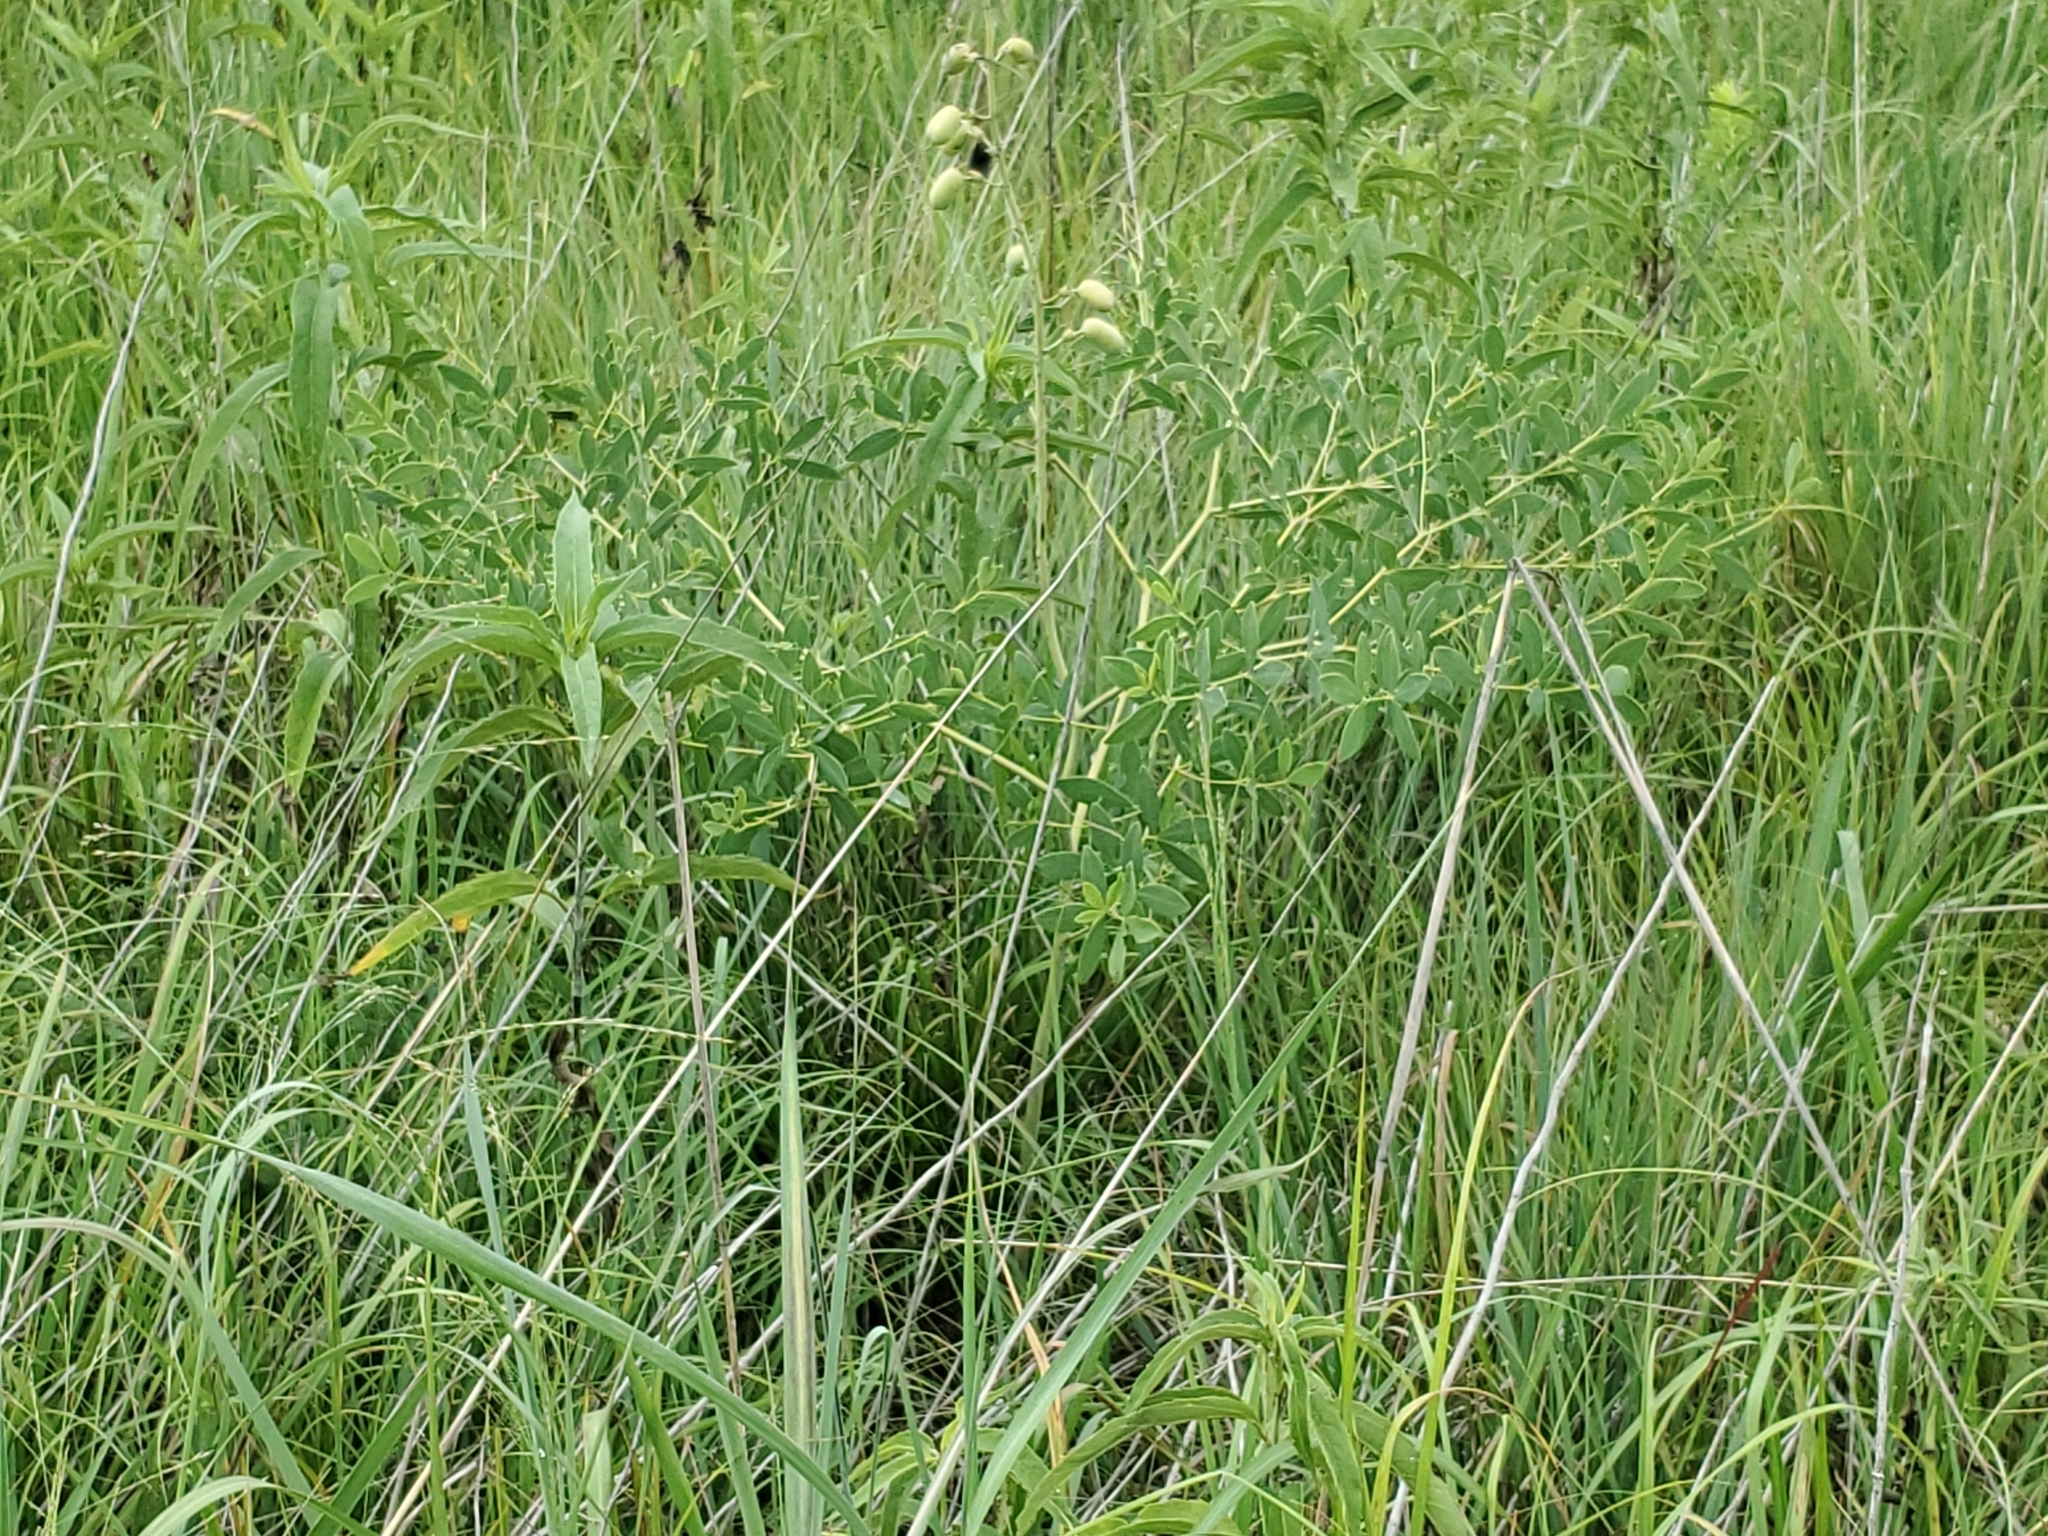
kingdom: Plantae
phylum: Tracheophyta
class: Magnoliopsida
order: Fabales
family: Fabaceae
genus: Baptisia
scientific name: Baptisia australis
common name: Blue false indigo
